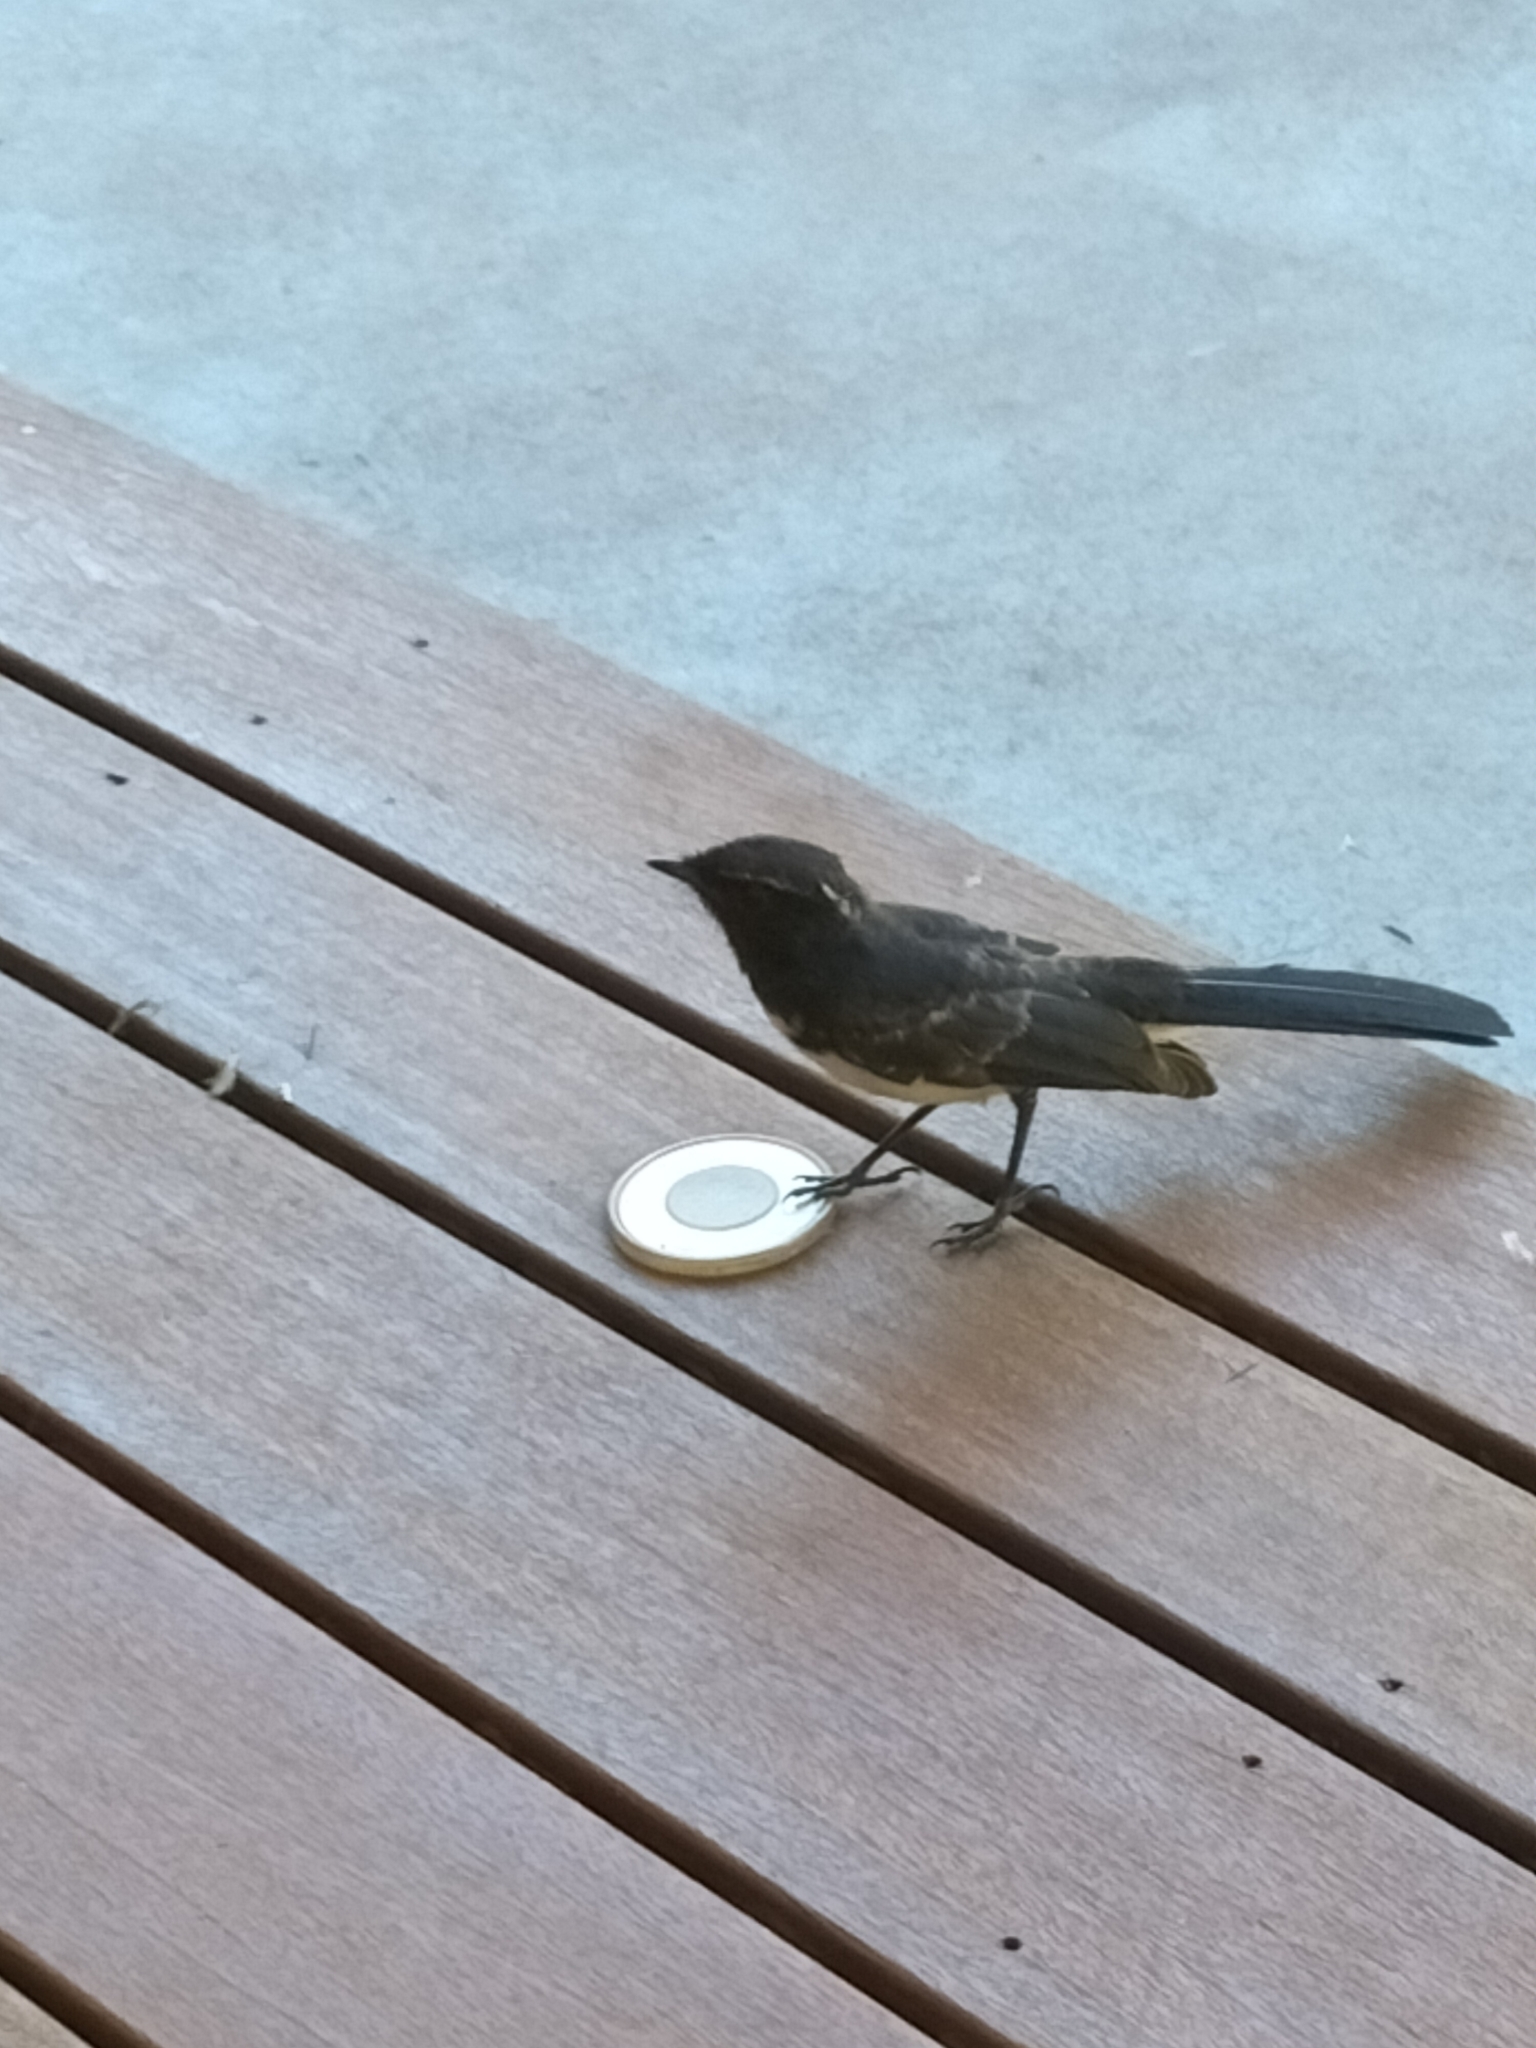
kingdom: Animalia
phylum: Chordata
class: Aves
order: Passeriformes
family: Rhipiduridae
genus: Rhipidura
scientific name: Rhipidura leucophrys
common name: Willie wagtail
